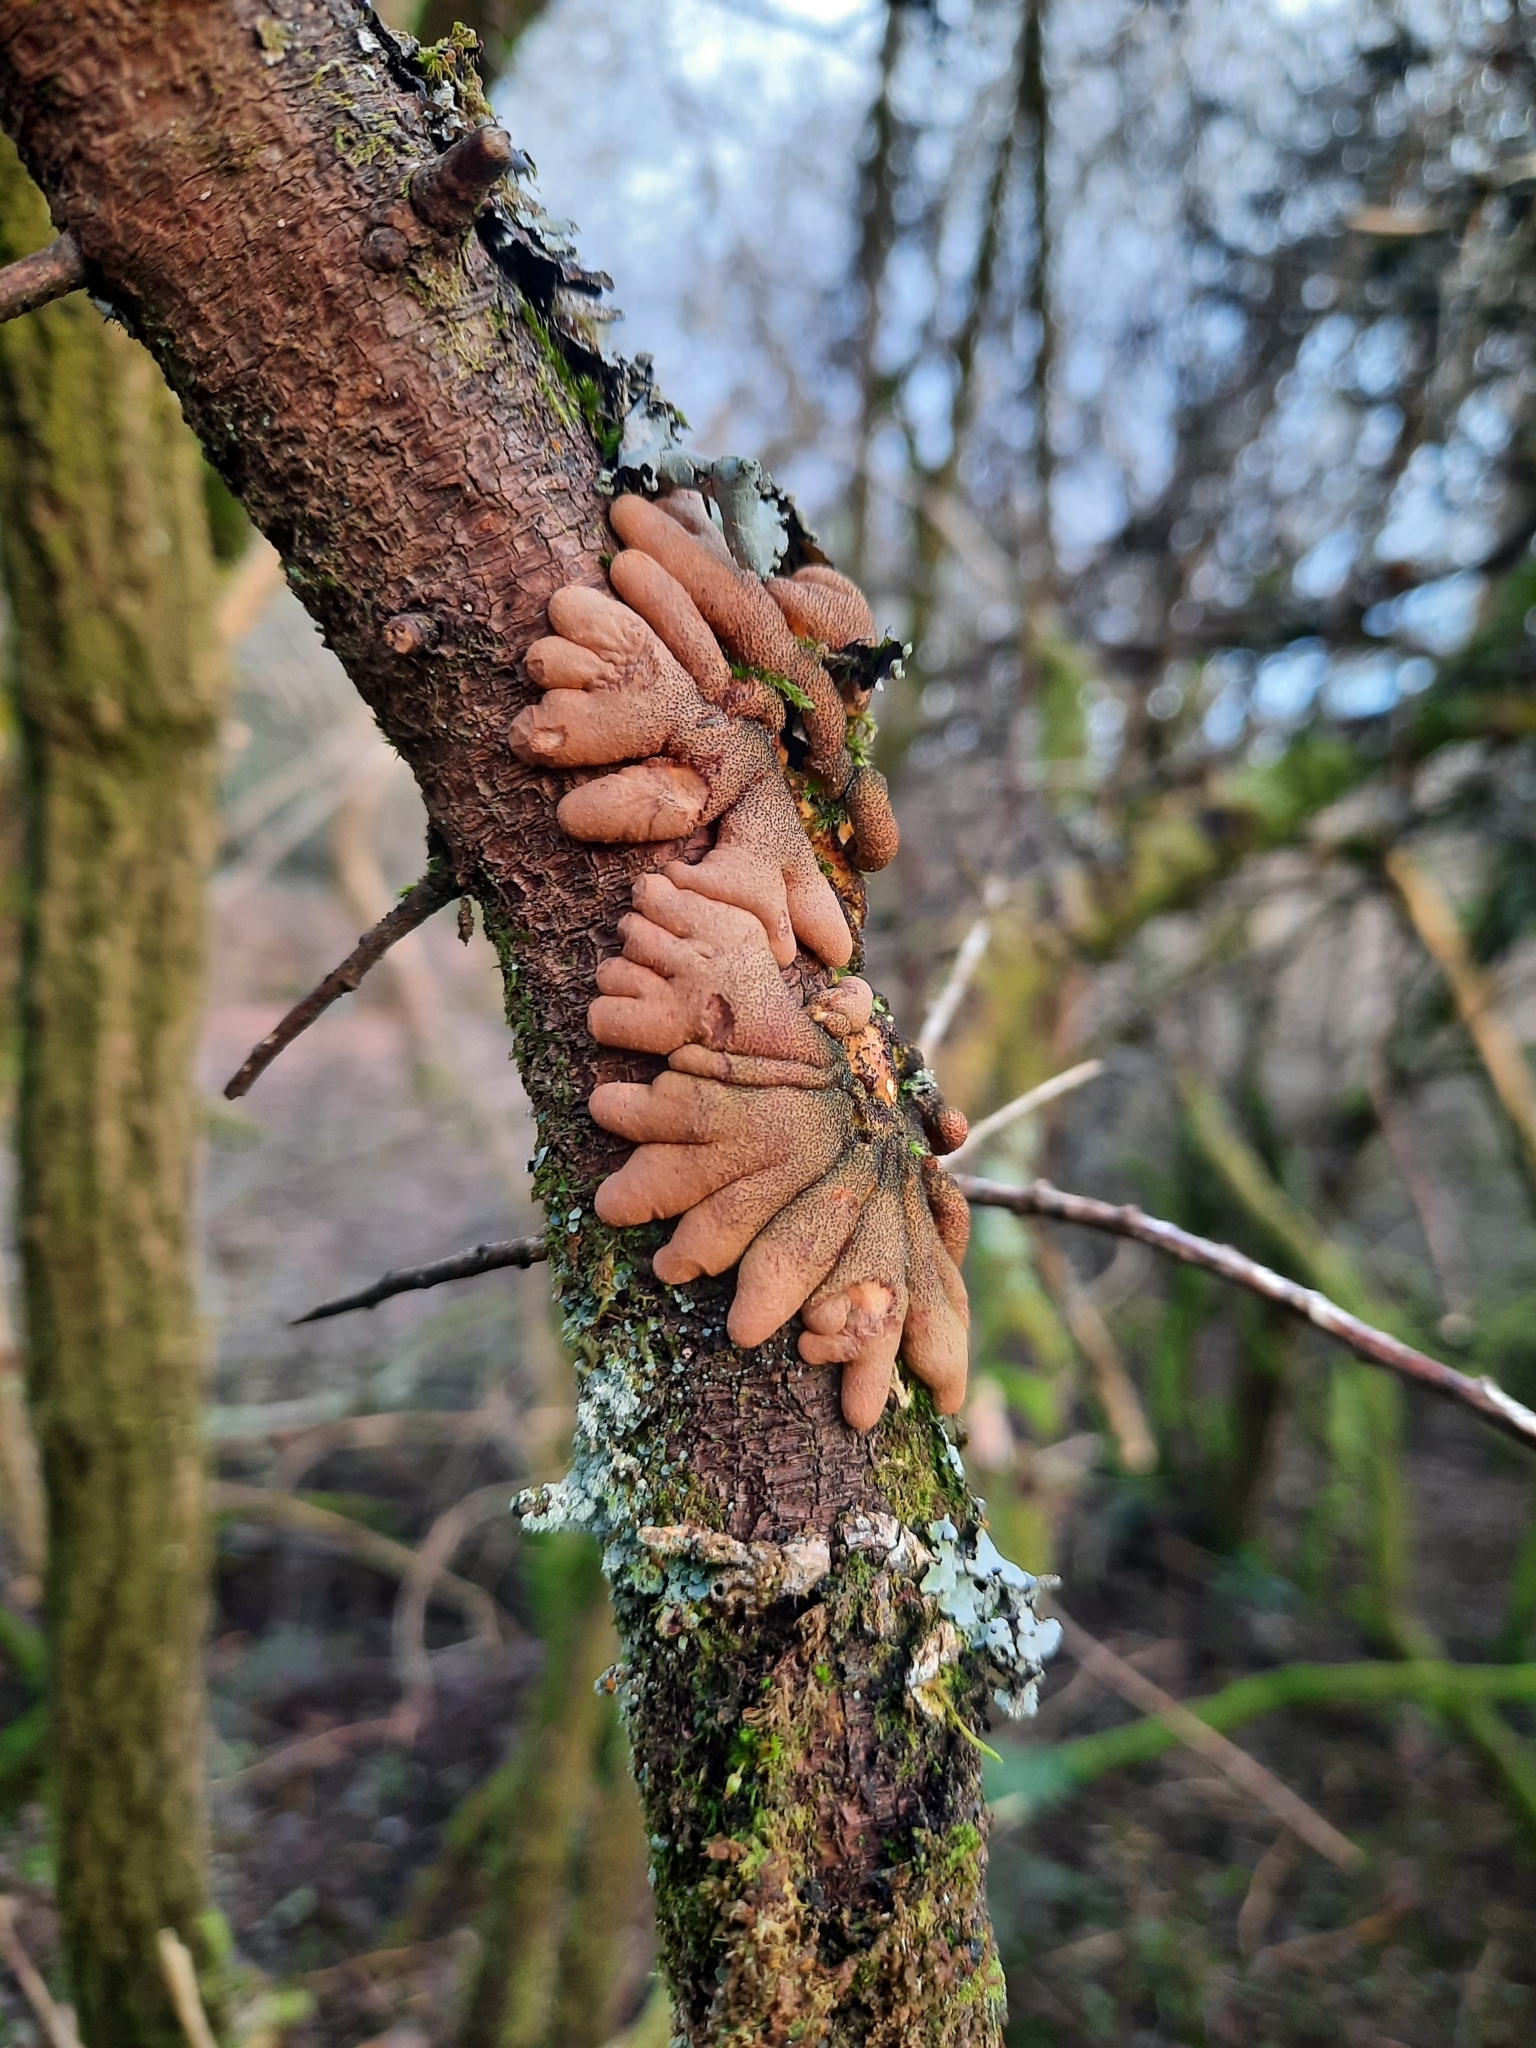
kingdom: Fungi
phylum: Ascomycota
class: Sordariomycetes
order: Hypocreales
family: Hypocreaceae
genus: Hypocreopsis
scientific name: Hypocreopsis rhododendri
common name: Hazel gloves
